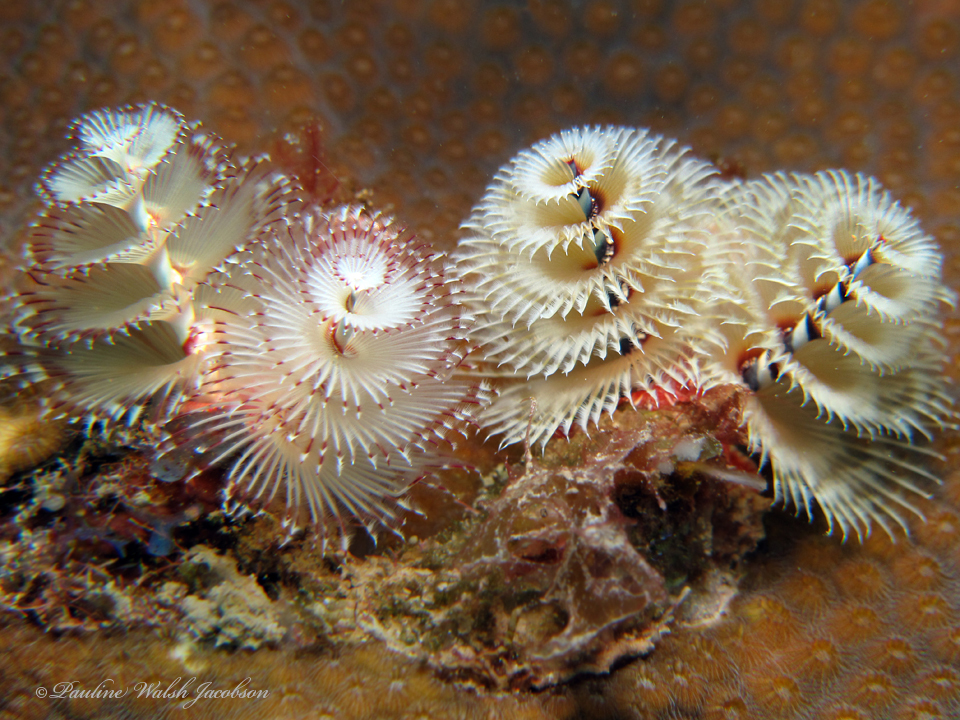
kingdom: Animalia
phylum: Annelida
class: Polychaeta
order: Sabellida
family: Serpulidae
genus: Spirobranchus
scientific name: Spirobranchus giganteus
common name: Christmas tree worm
